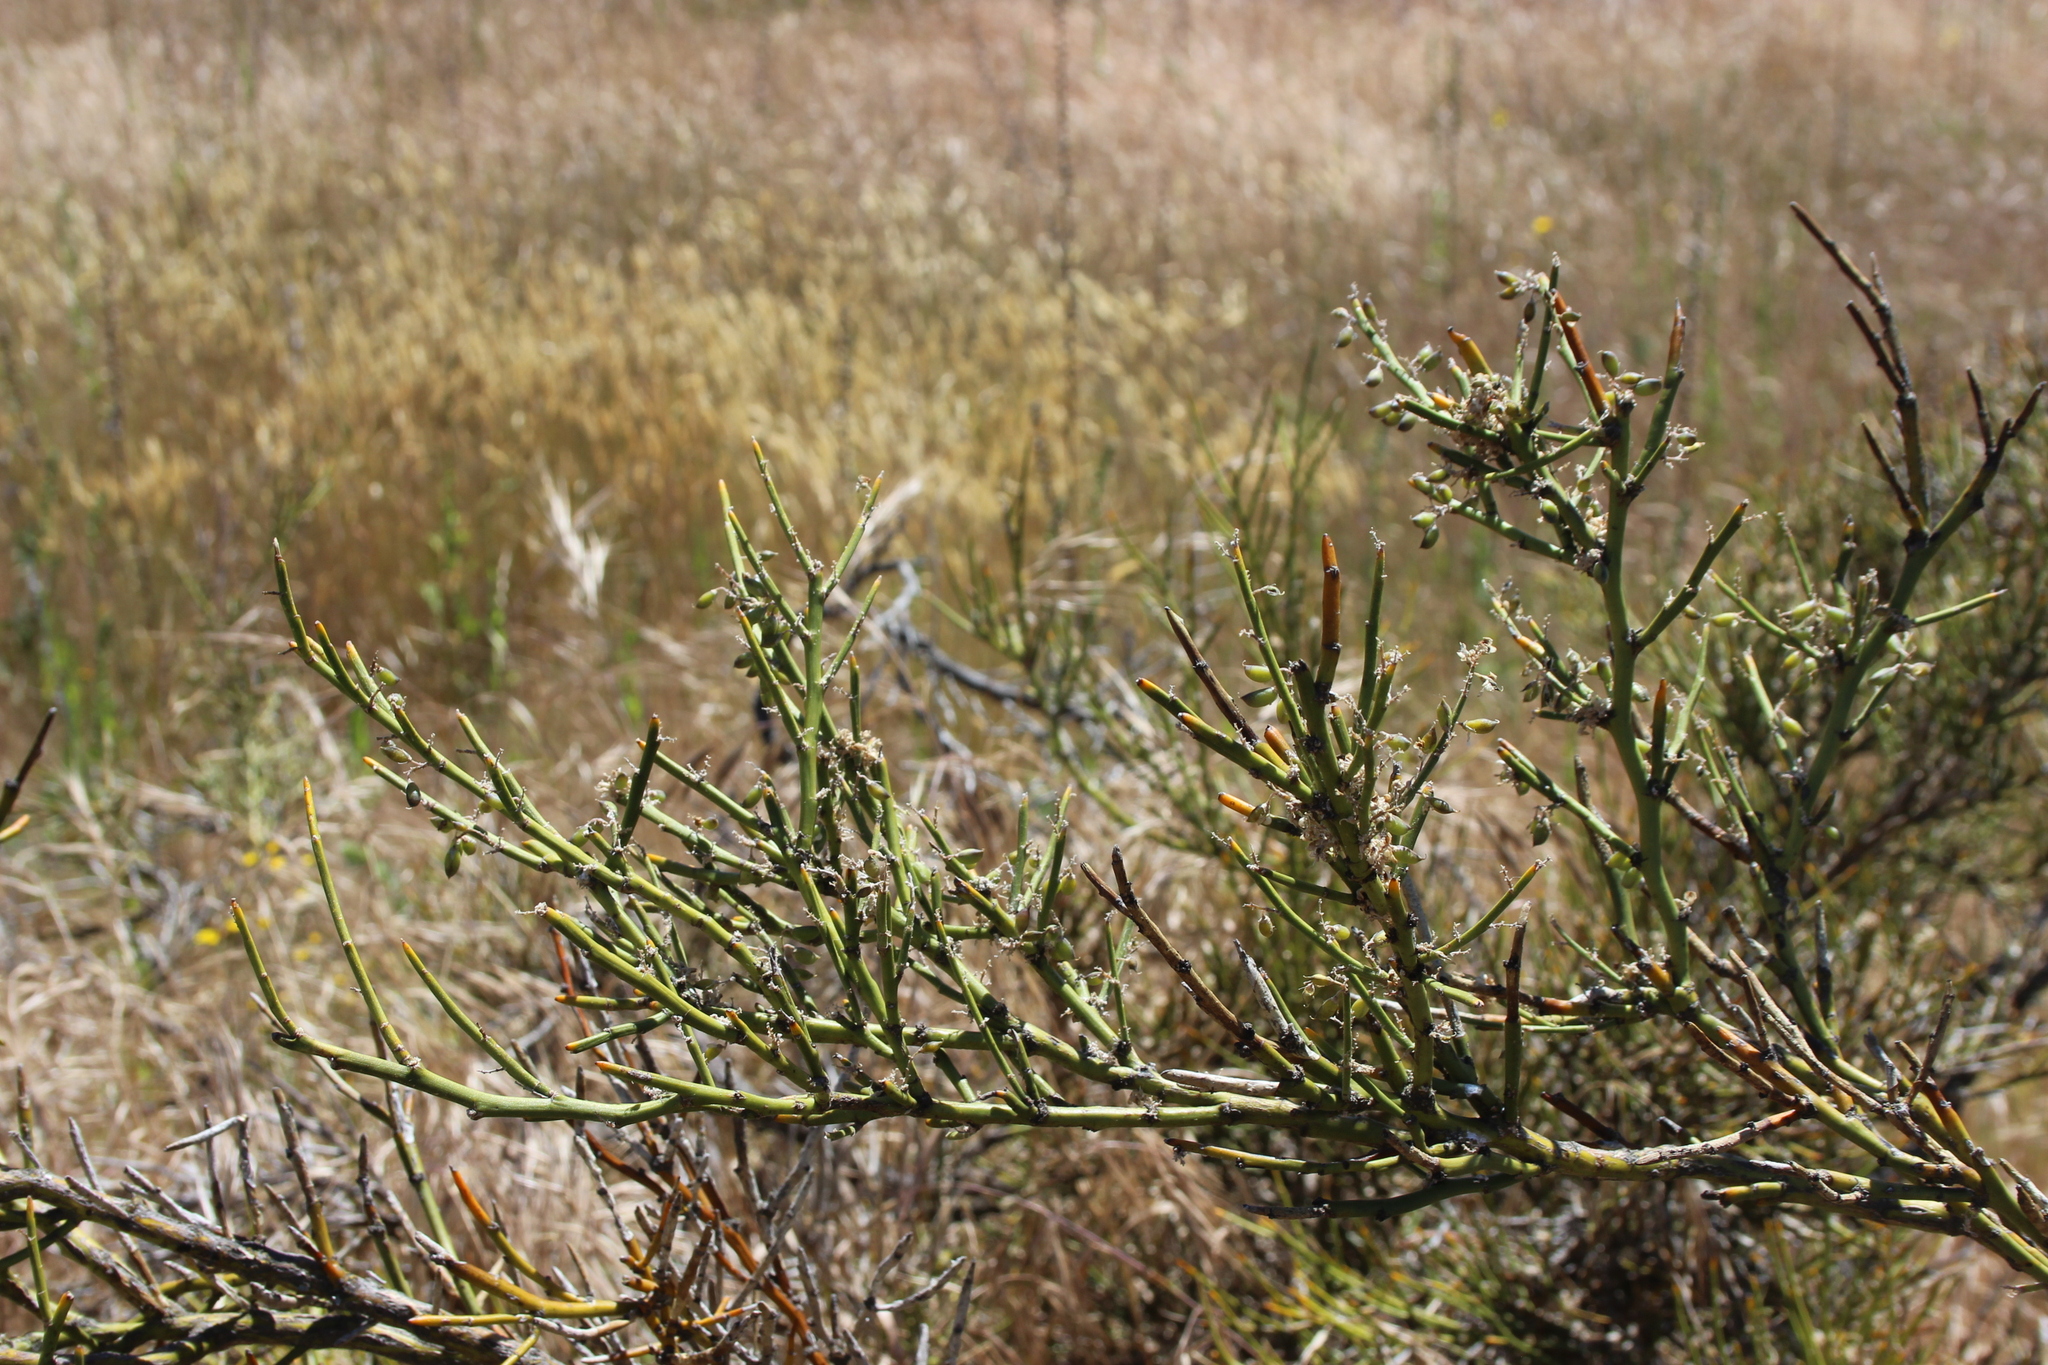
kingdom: Plantae
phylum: Tracheophyta
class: Magnoliopsida
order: Fabales
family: Fabaceae
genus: Carmichaelia
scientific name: Carmichaelia petriei
